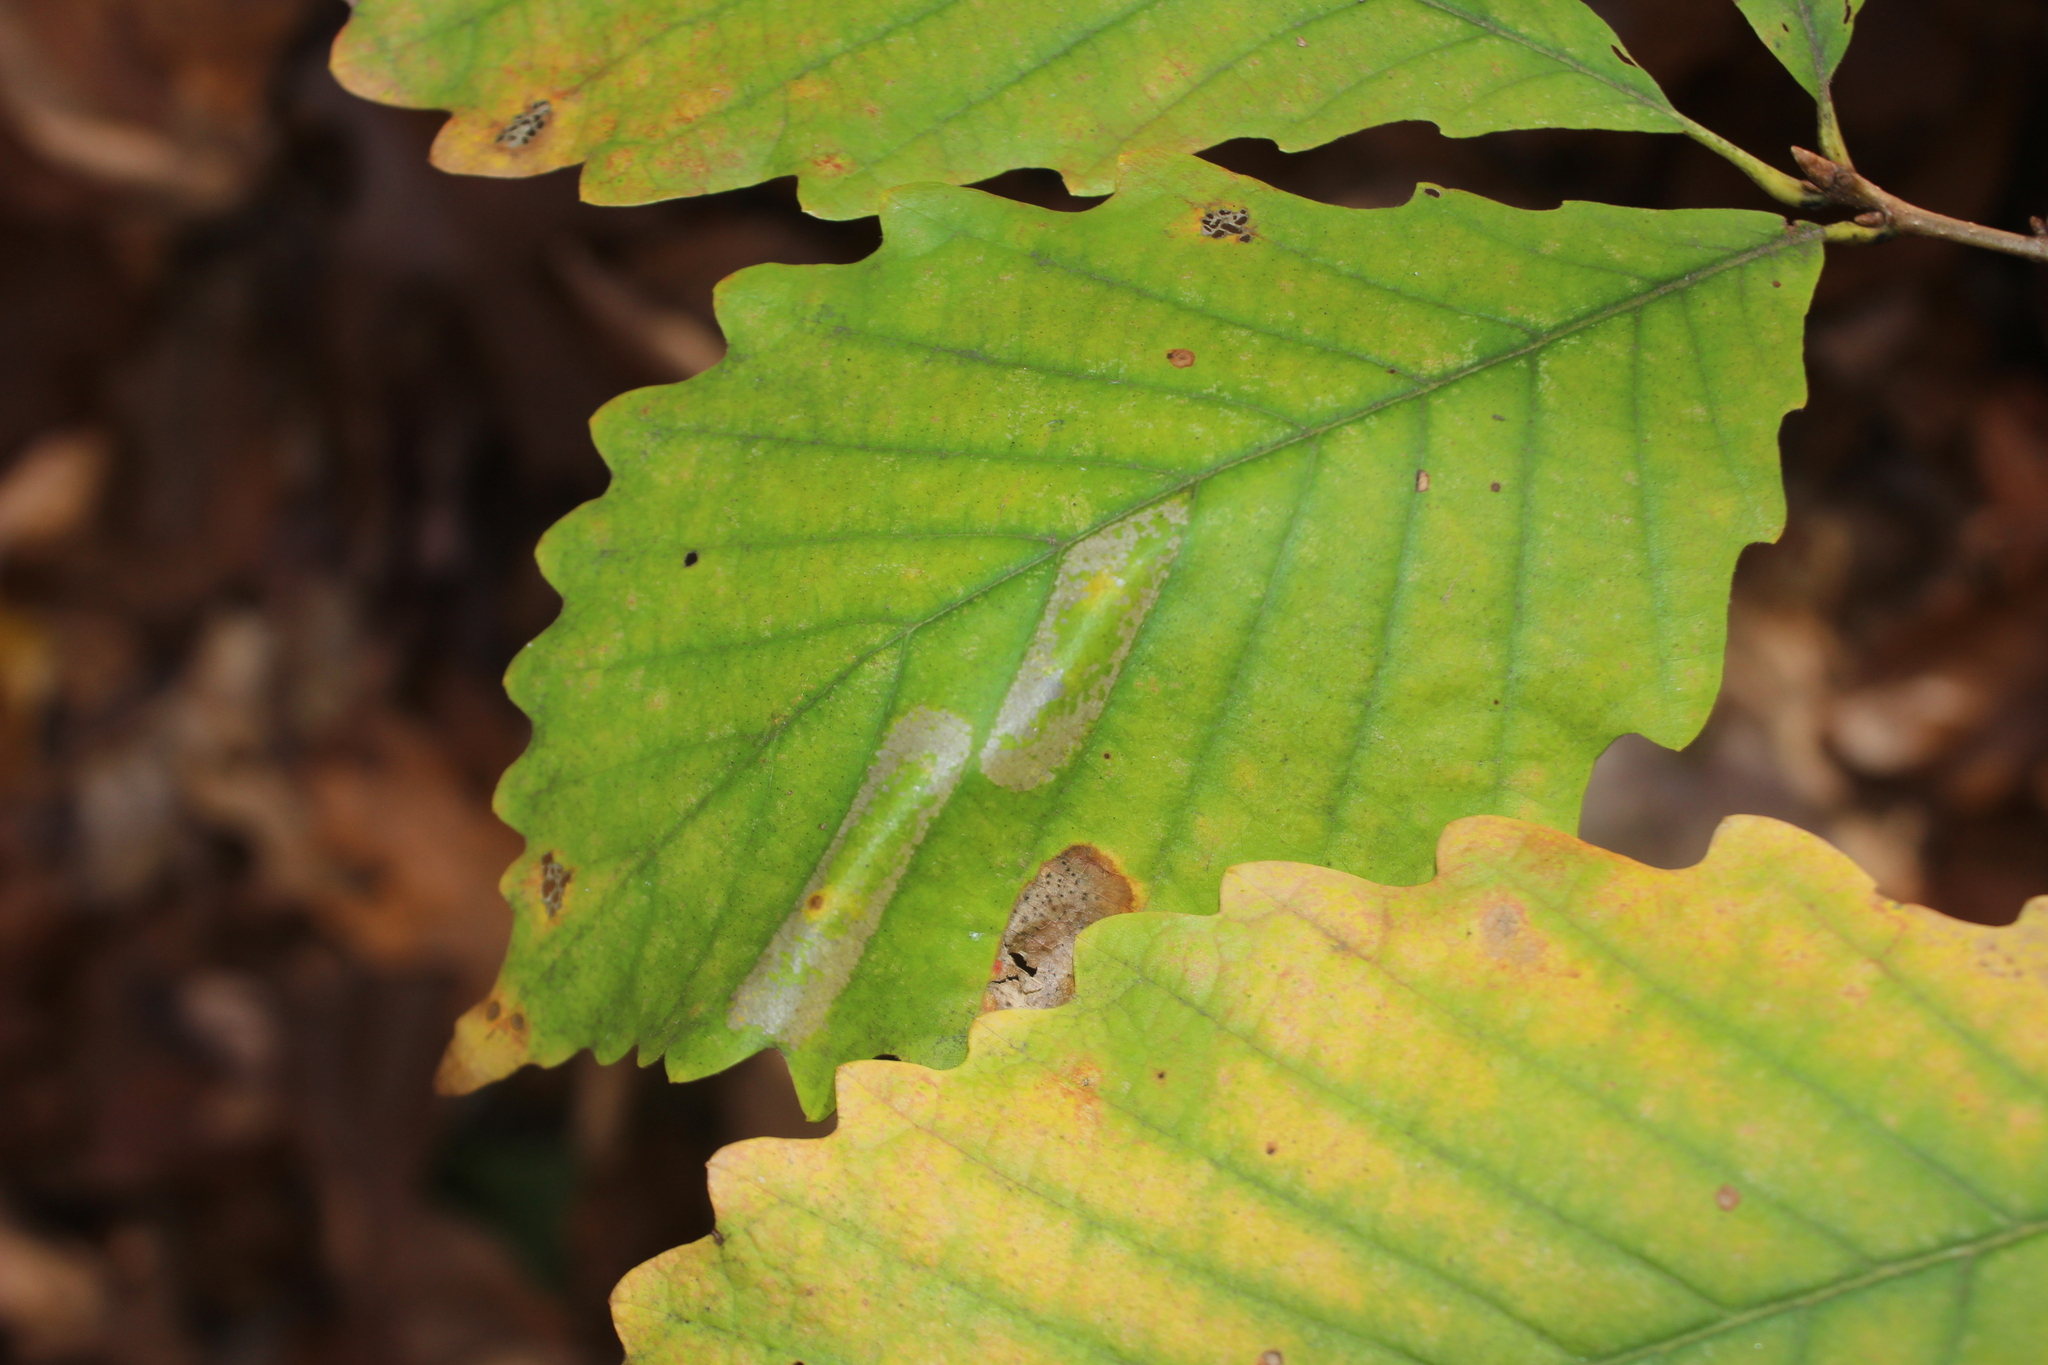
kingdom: Animalia
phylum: Arthropoda
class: Insecta
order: Lepidoptera
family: Gracillariidae
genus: Phyllonorycter
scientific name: Phyllonorycter
